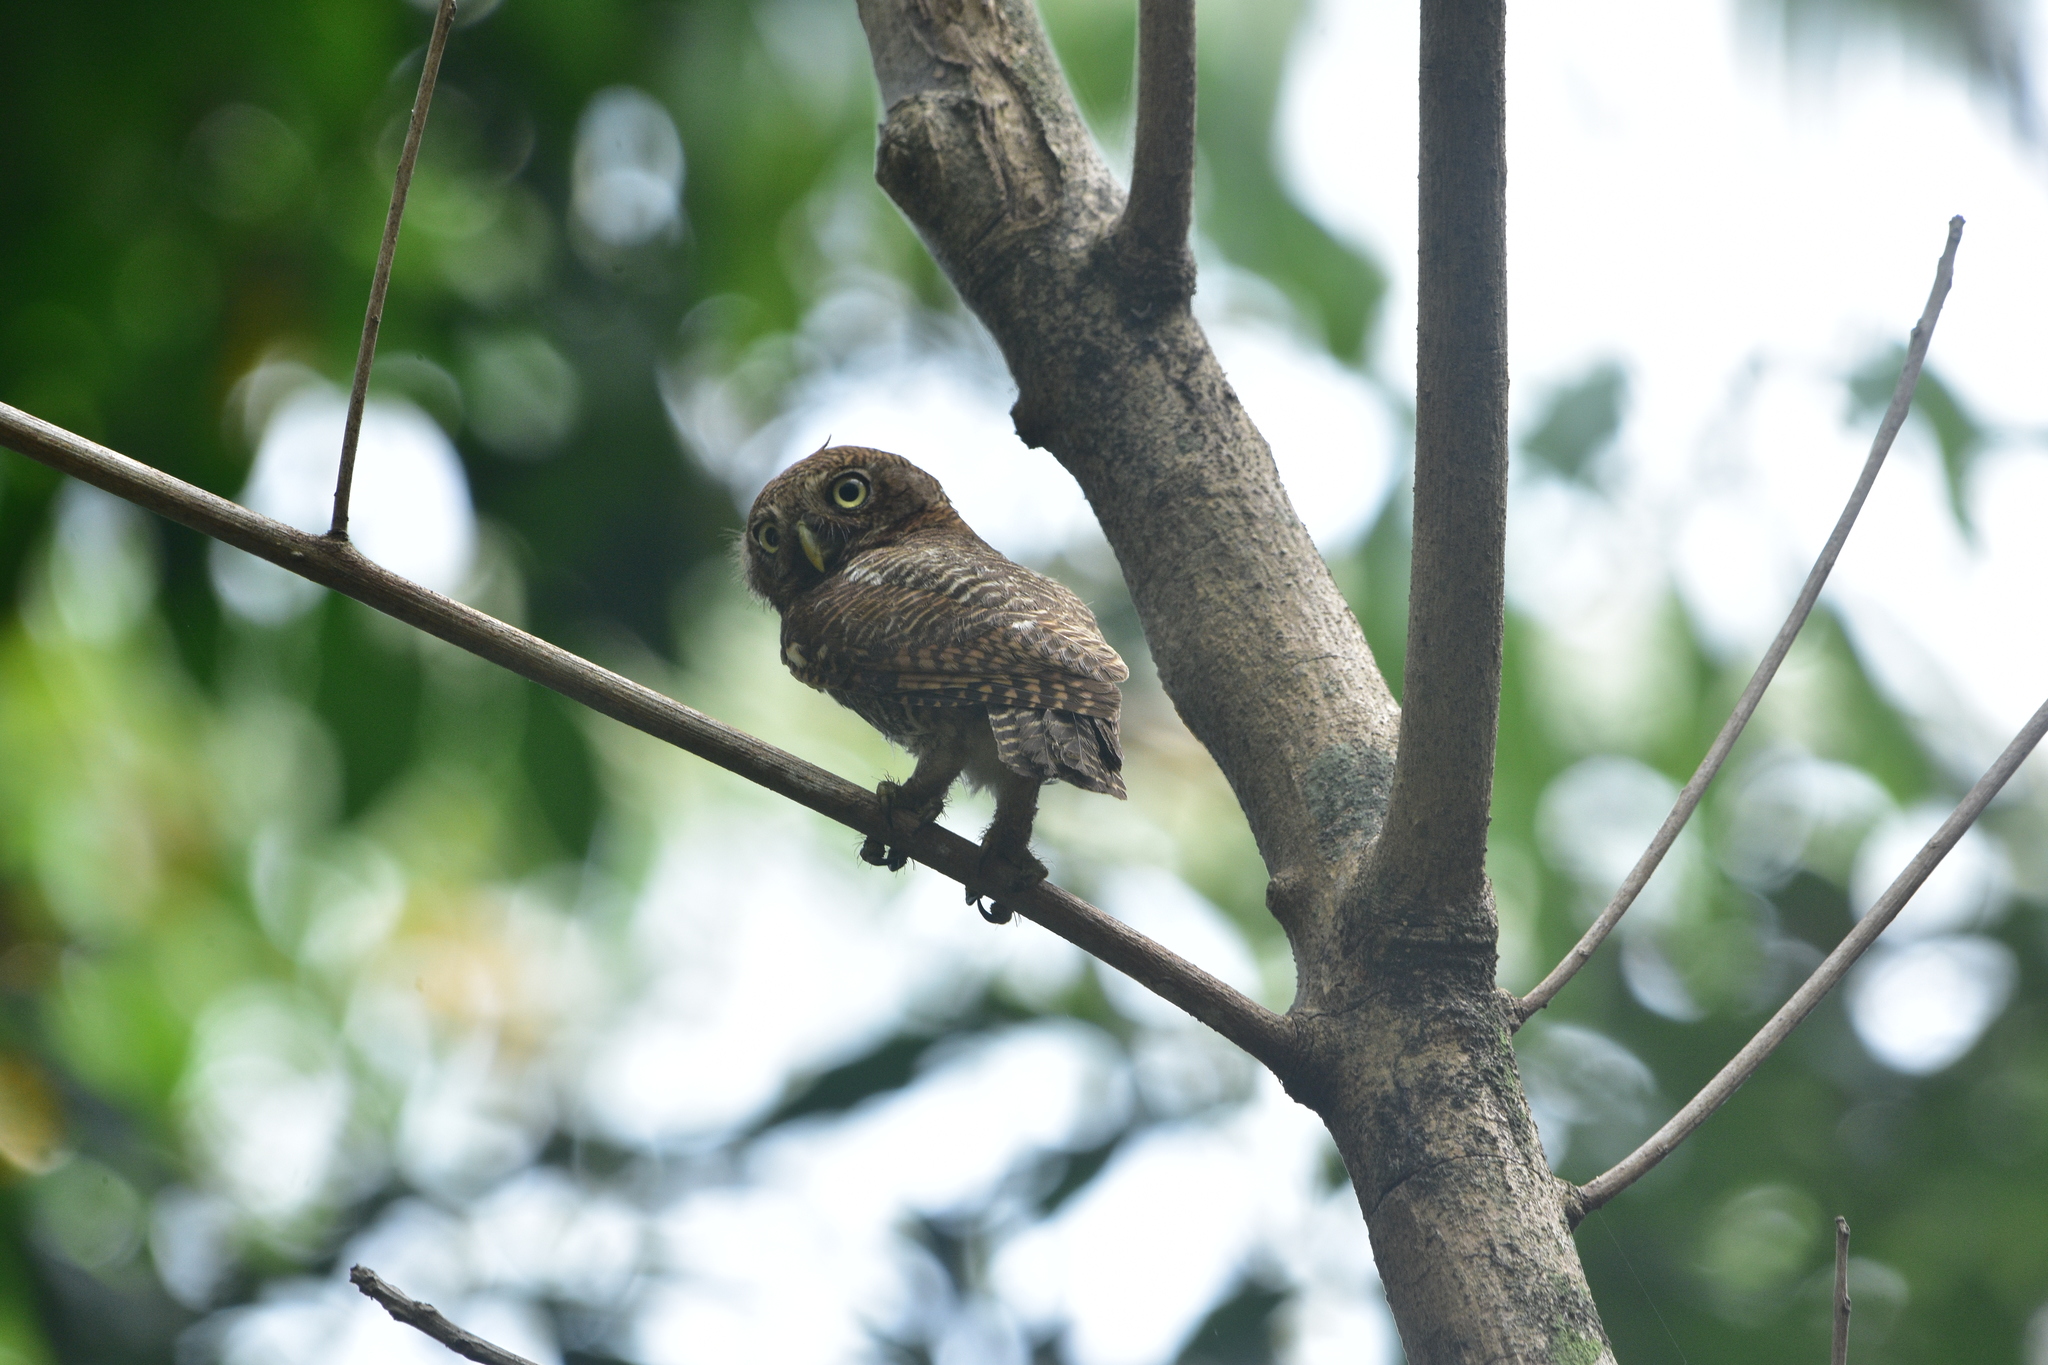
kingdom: Animalia
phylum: Chordata
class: Aves
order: Strigiformes
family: Strigidae
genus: Glaucidium
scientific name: Glaucidium radiatum
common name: Jungle owlet
